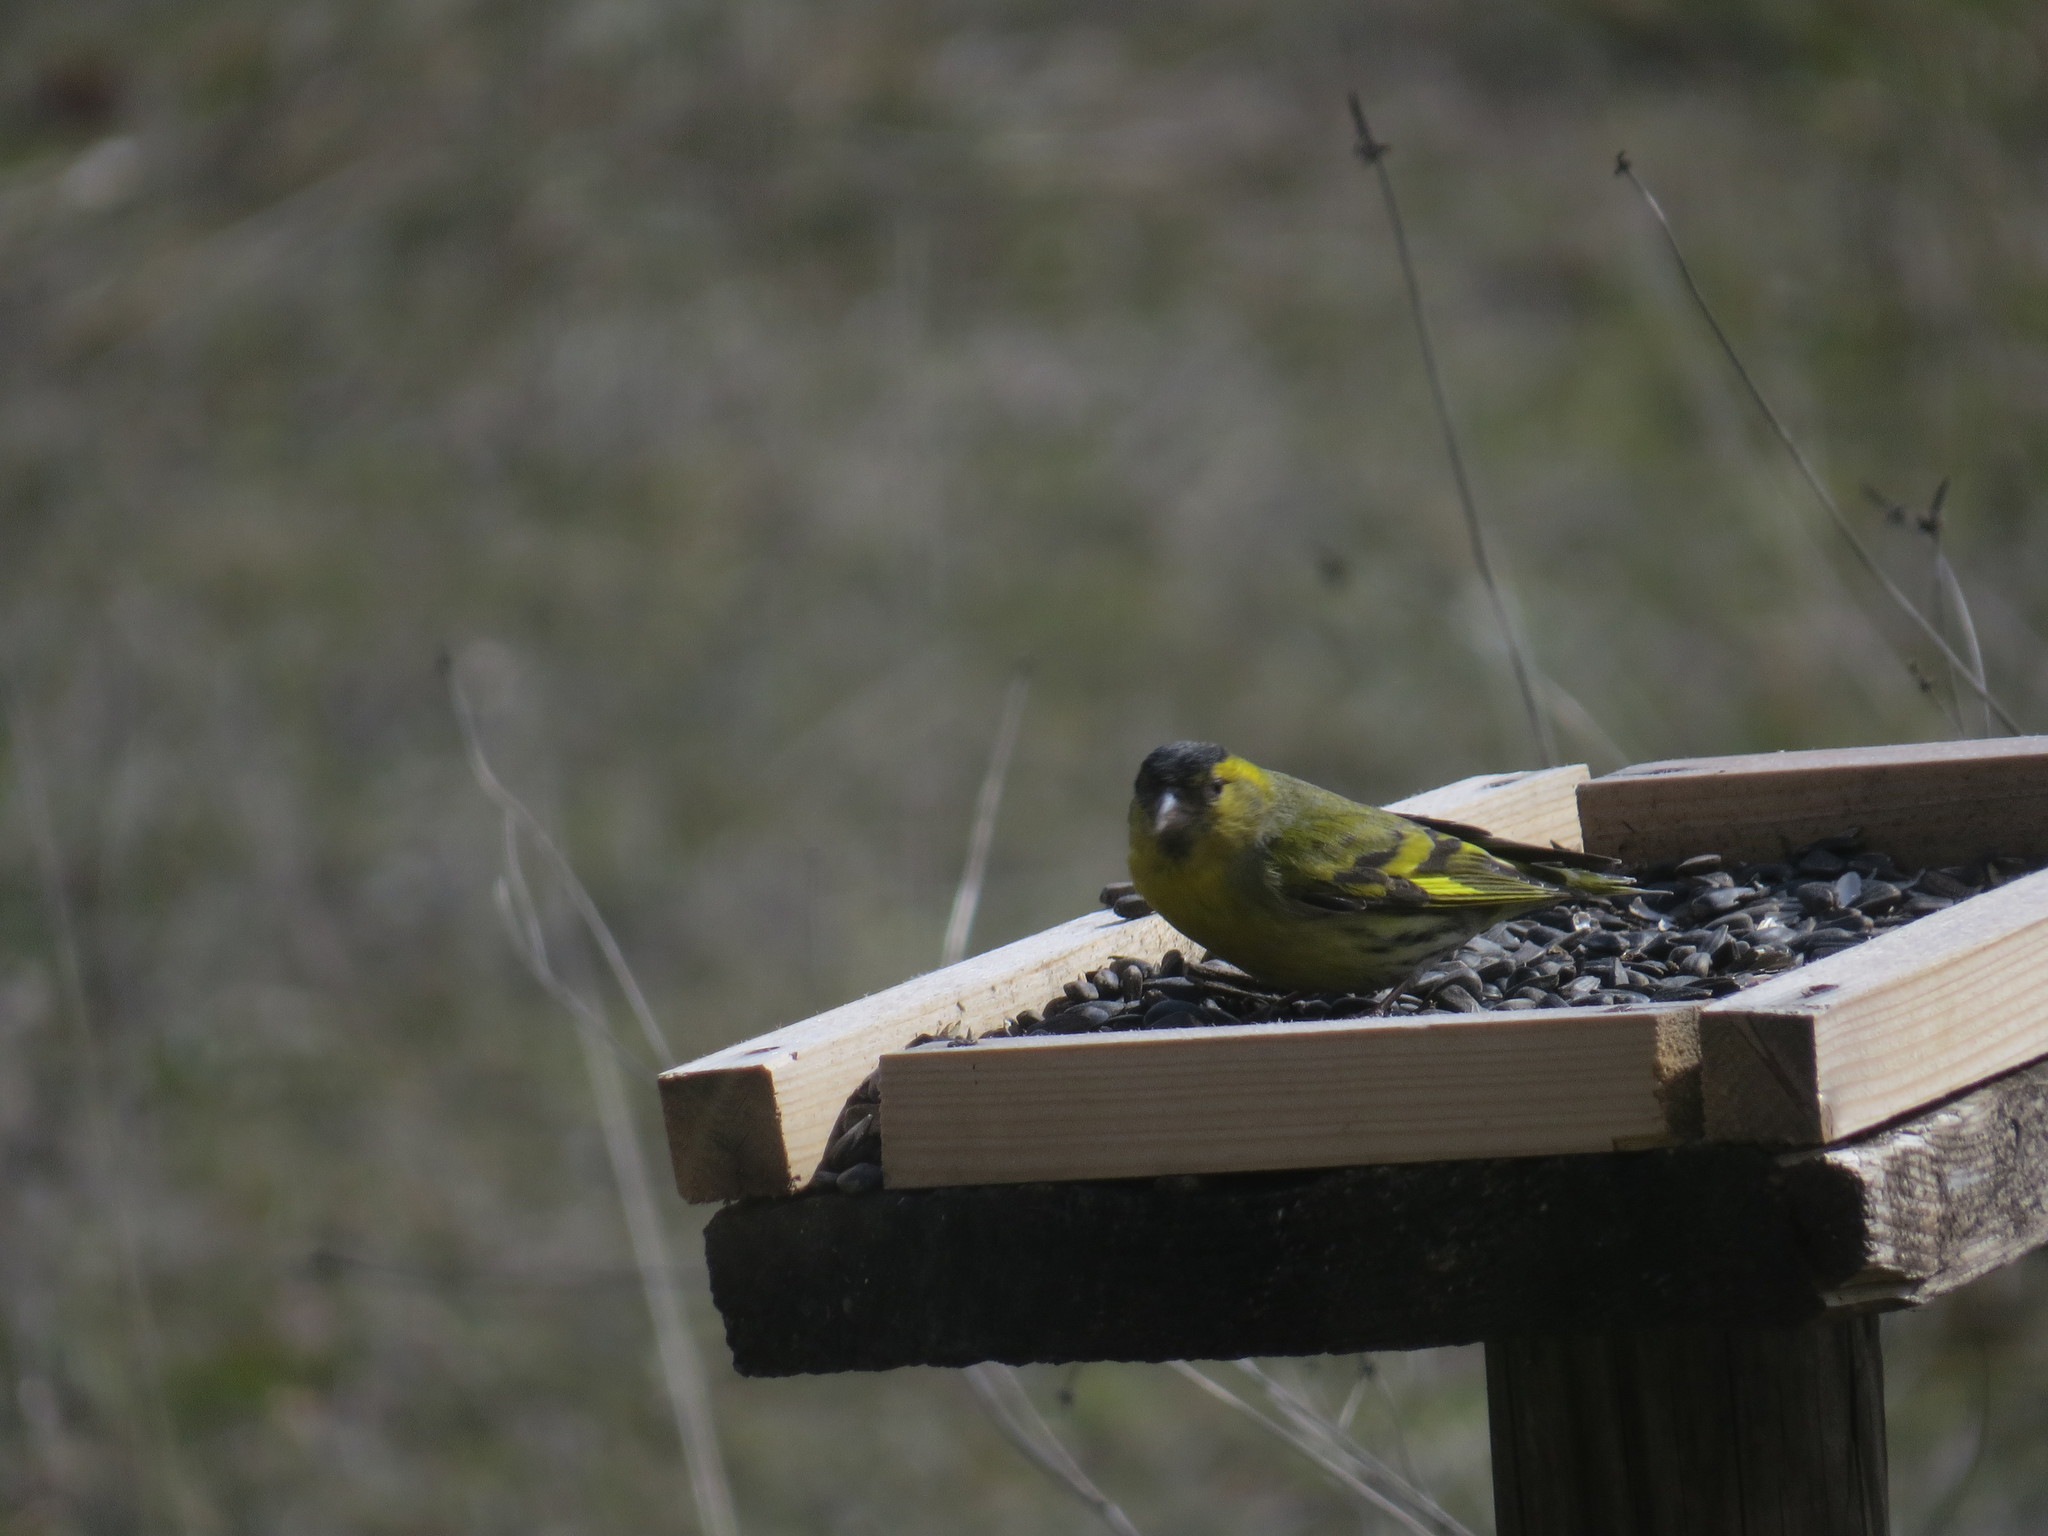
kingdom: Animalia
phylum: Chordata
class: Aves
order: Passeriformes
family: Fringillidae
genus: Spinus
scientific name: Spinus spinus
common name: Eurasian siskin
